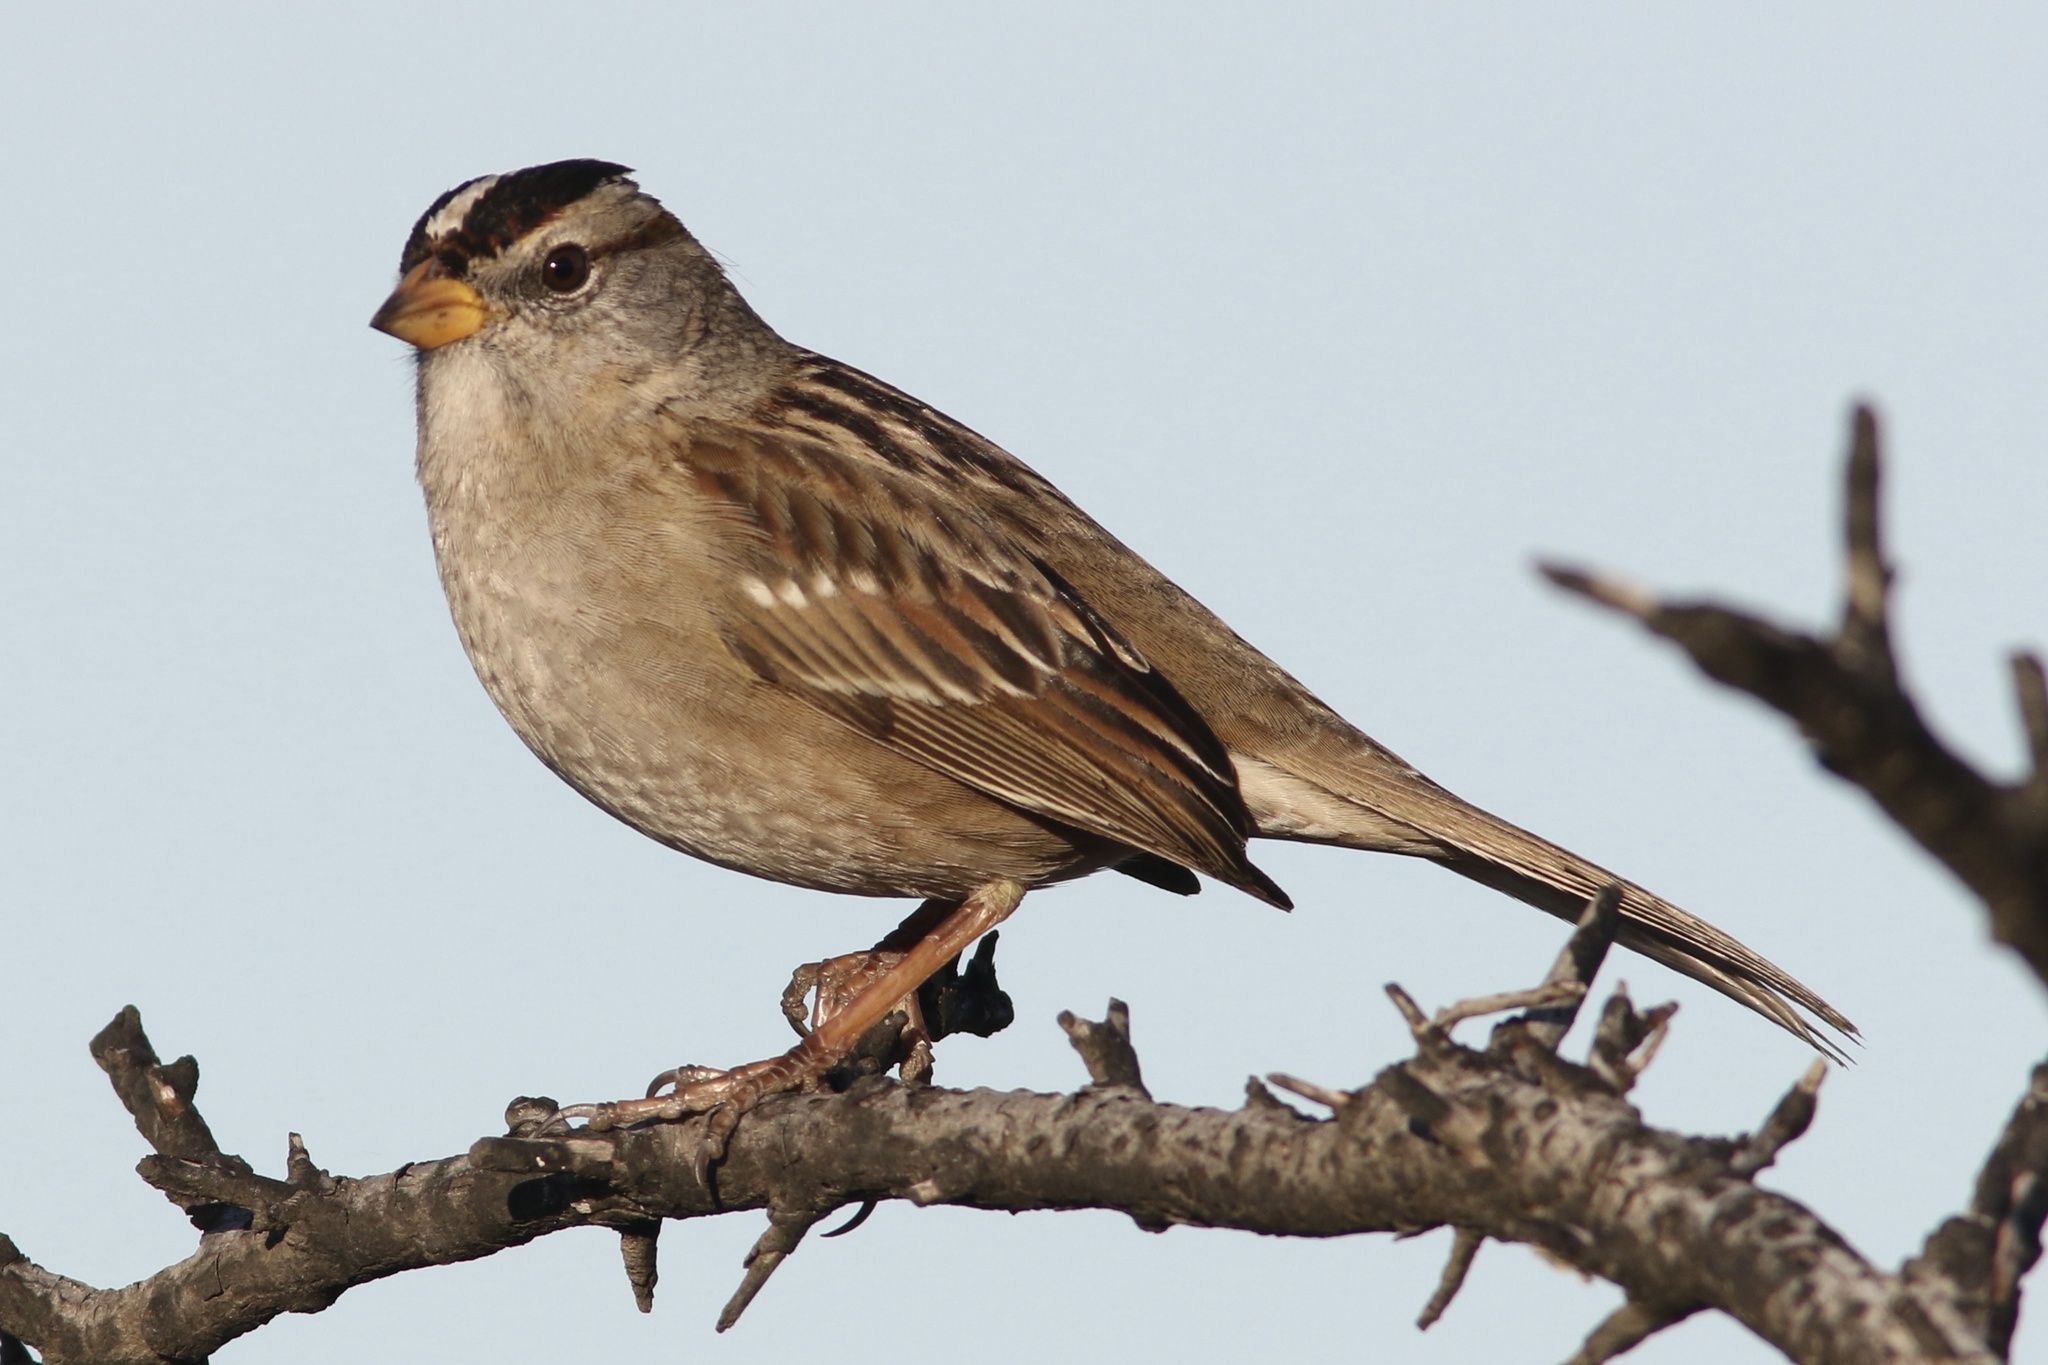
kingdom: Animalia
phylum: Chordata
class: Aves
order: Passeriformes
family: Passerellidae
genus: Zonotrichia
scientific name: Zonotrichia leucophrys
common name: White-crowned sparrow
